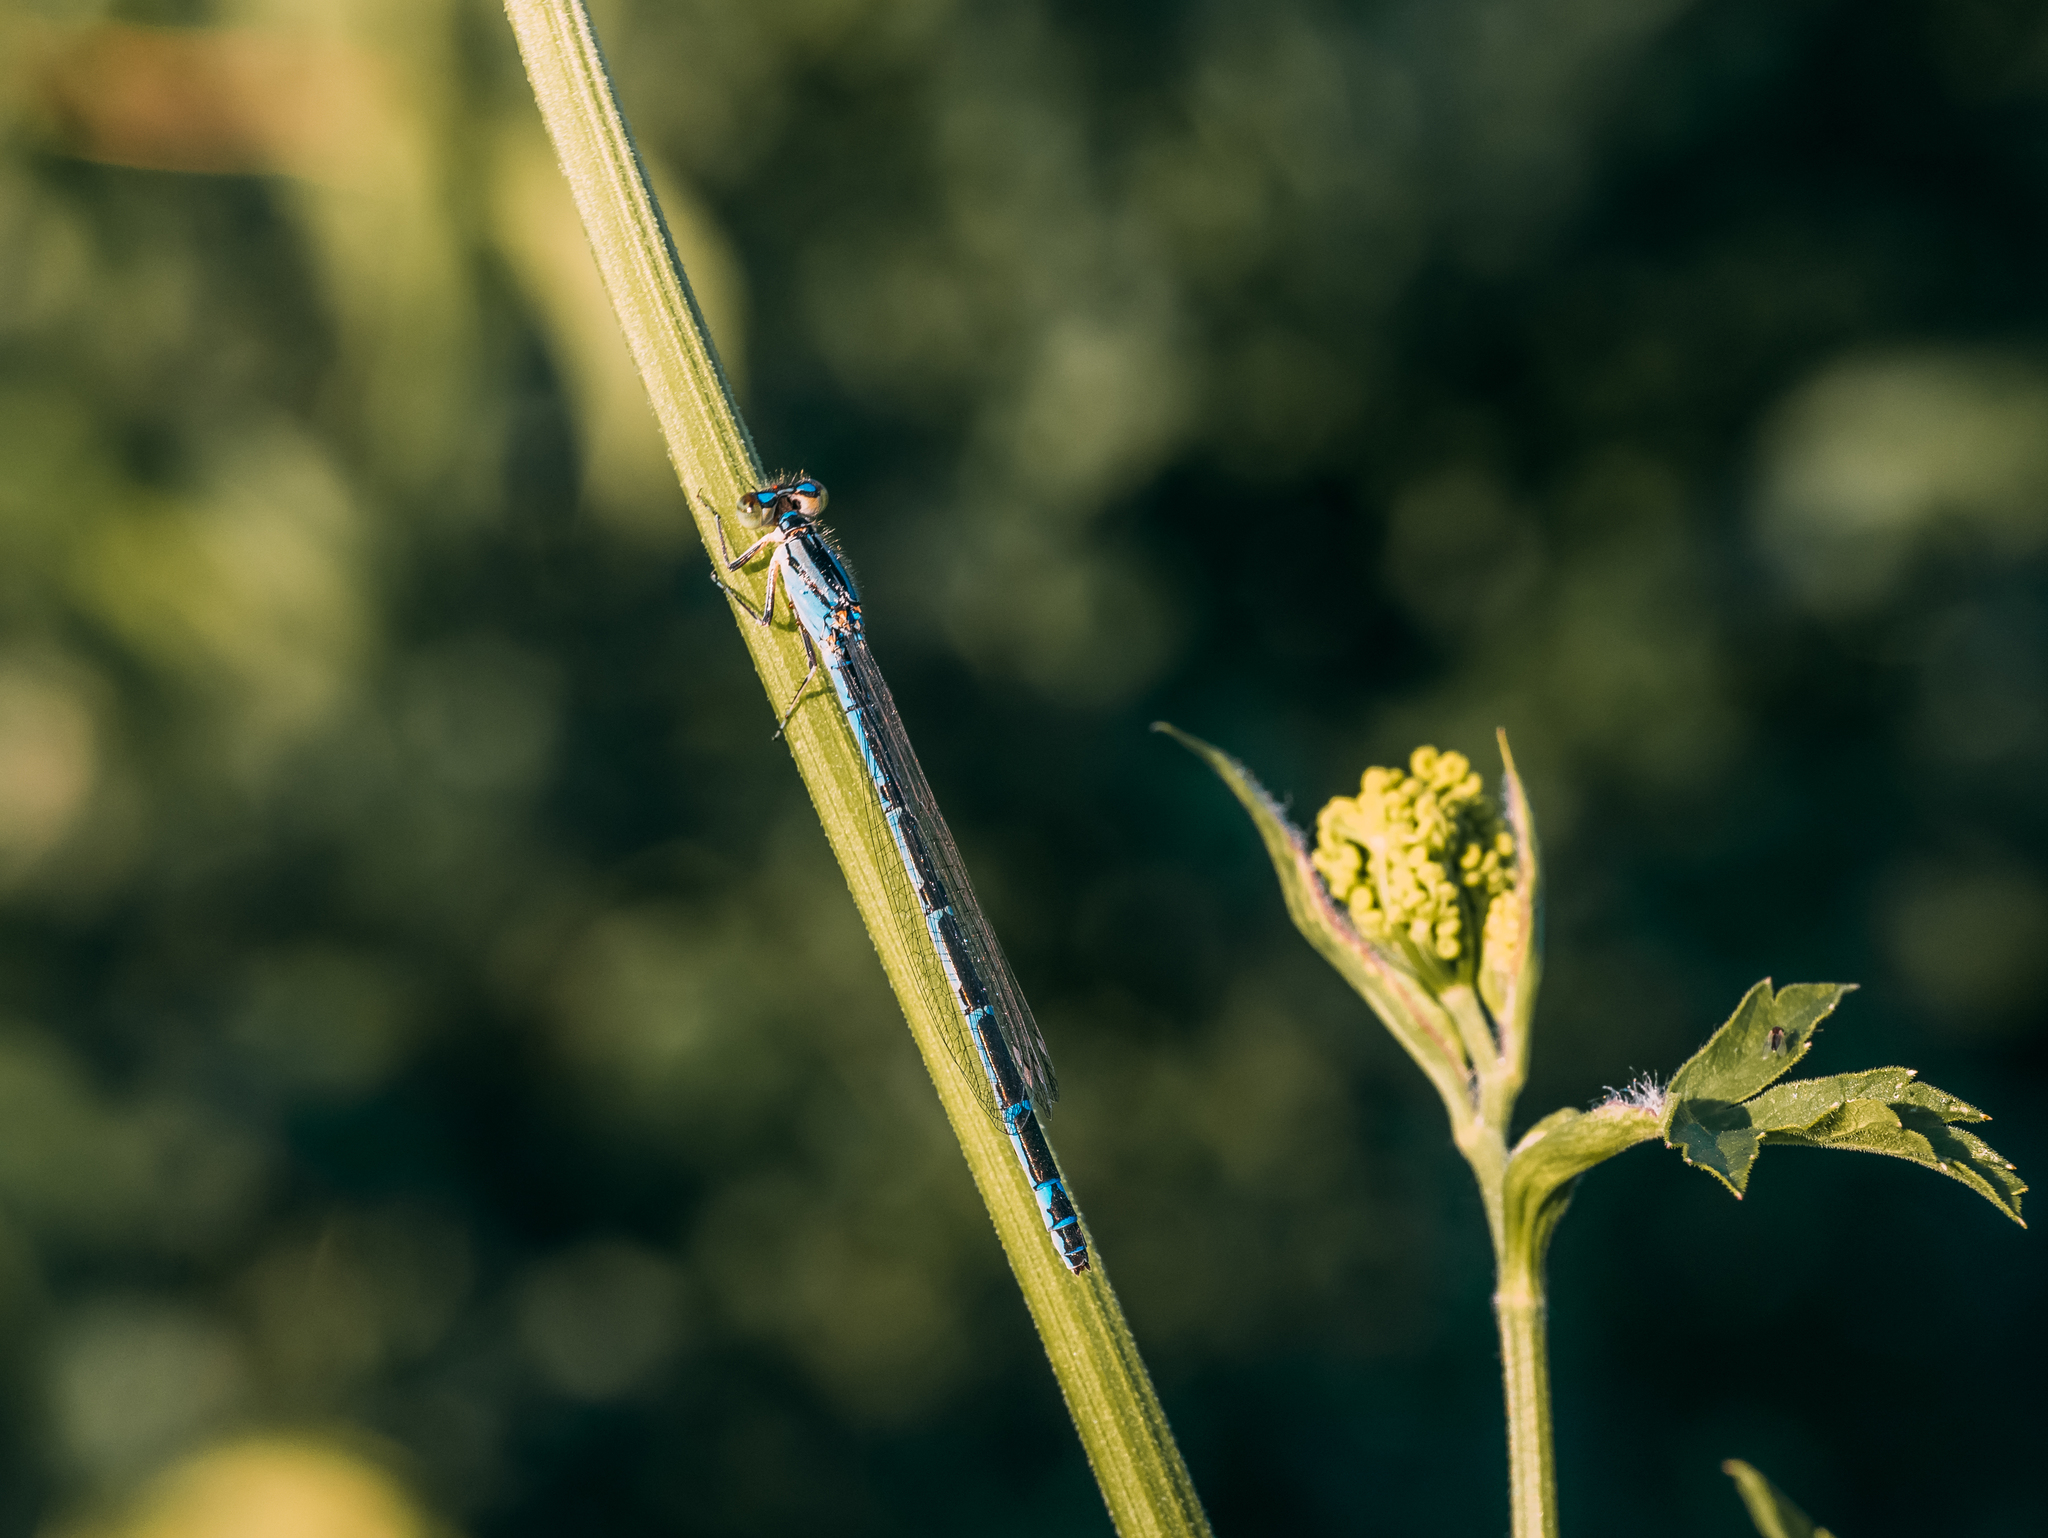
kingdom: Animalia
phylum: Arthropoda
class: Insecta
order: Odonata
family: Coenagrionidae
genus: Enallagma
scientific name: Enallagma cyathigerum
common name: Common blue damselfly
